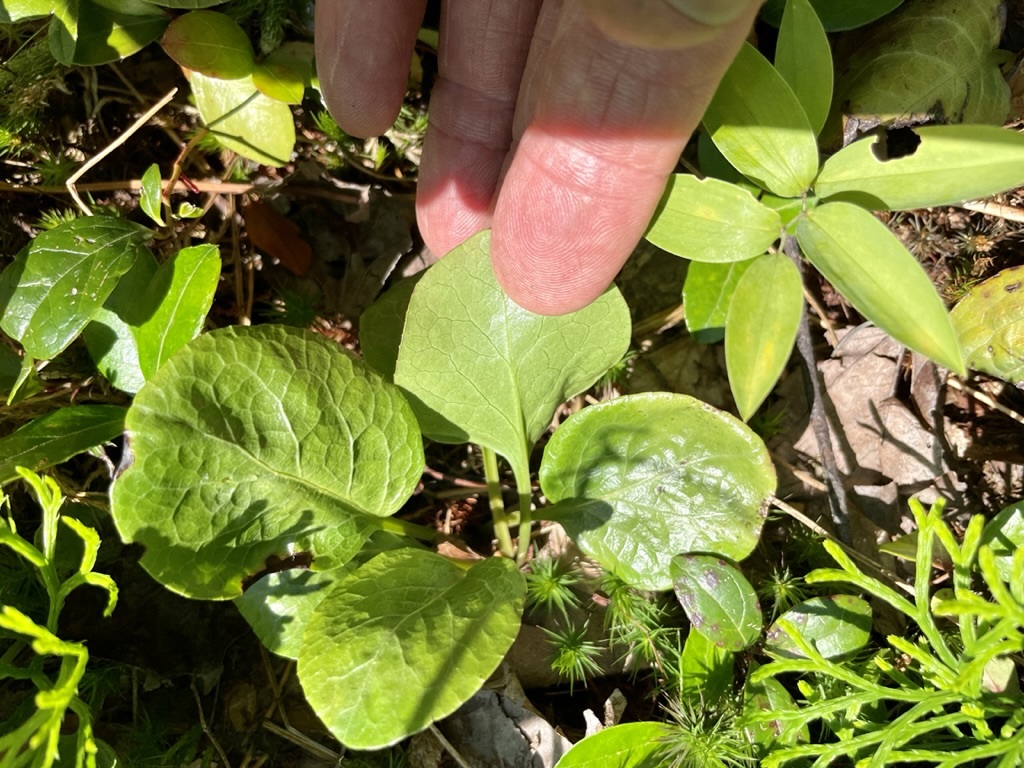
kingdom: Plantae
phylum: Tracheophyta
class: Magnoliopsida
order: Ericales
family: Ericaceae
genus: Pyrola
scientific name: Pyrola americana
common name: American wintergreen
